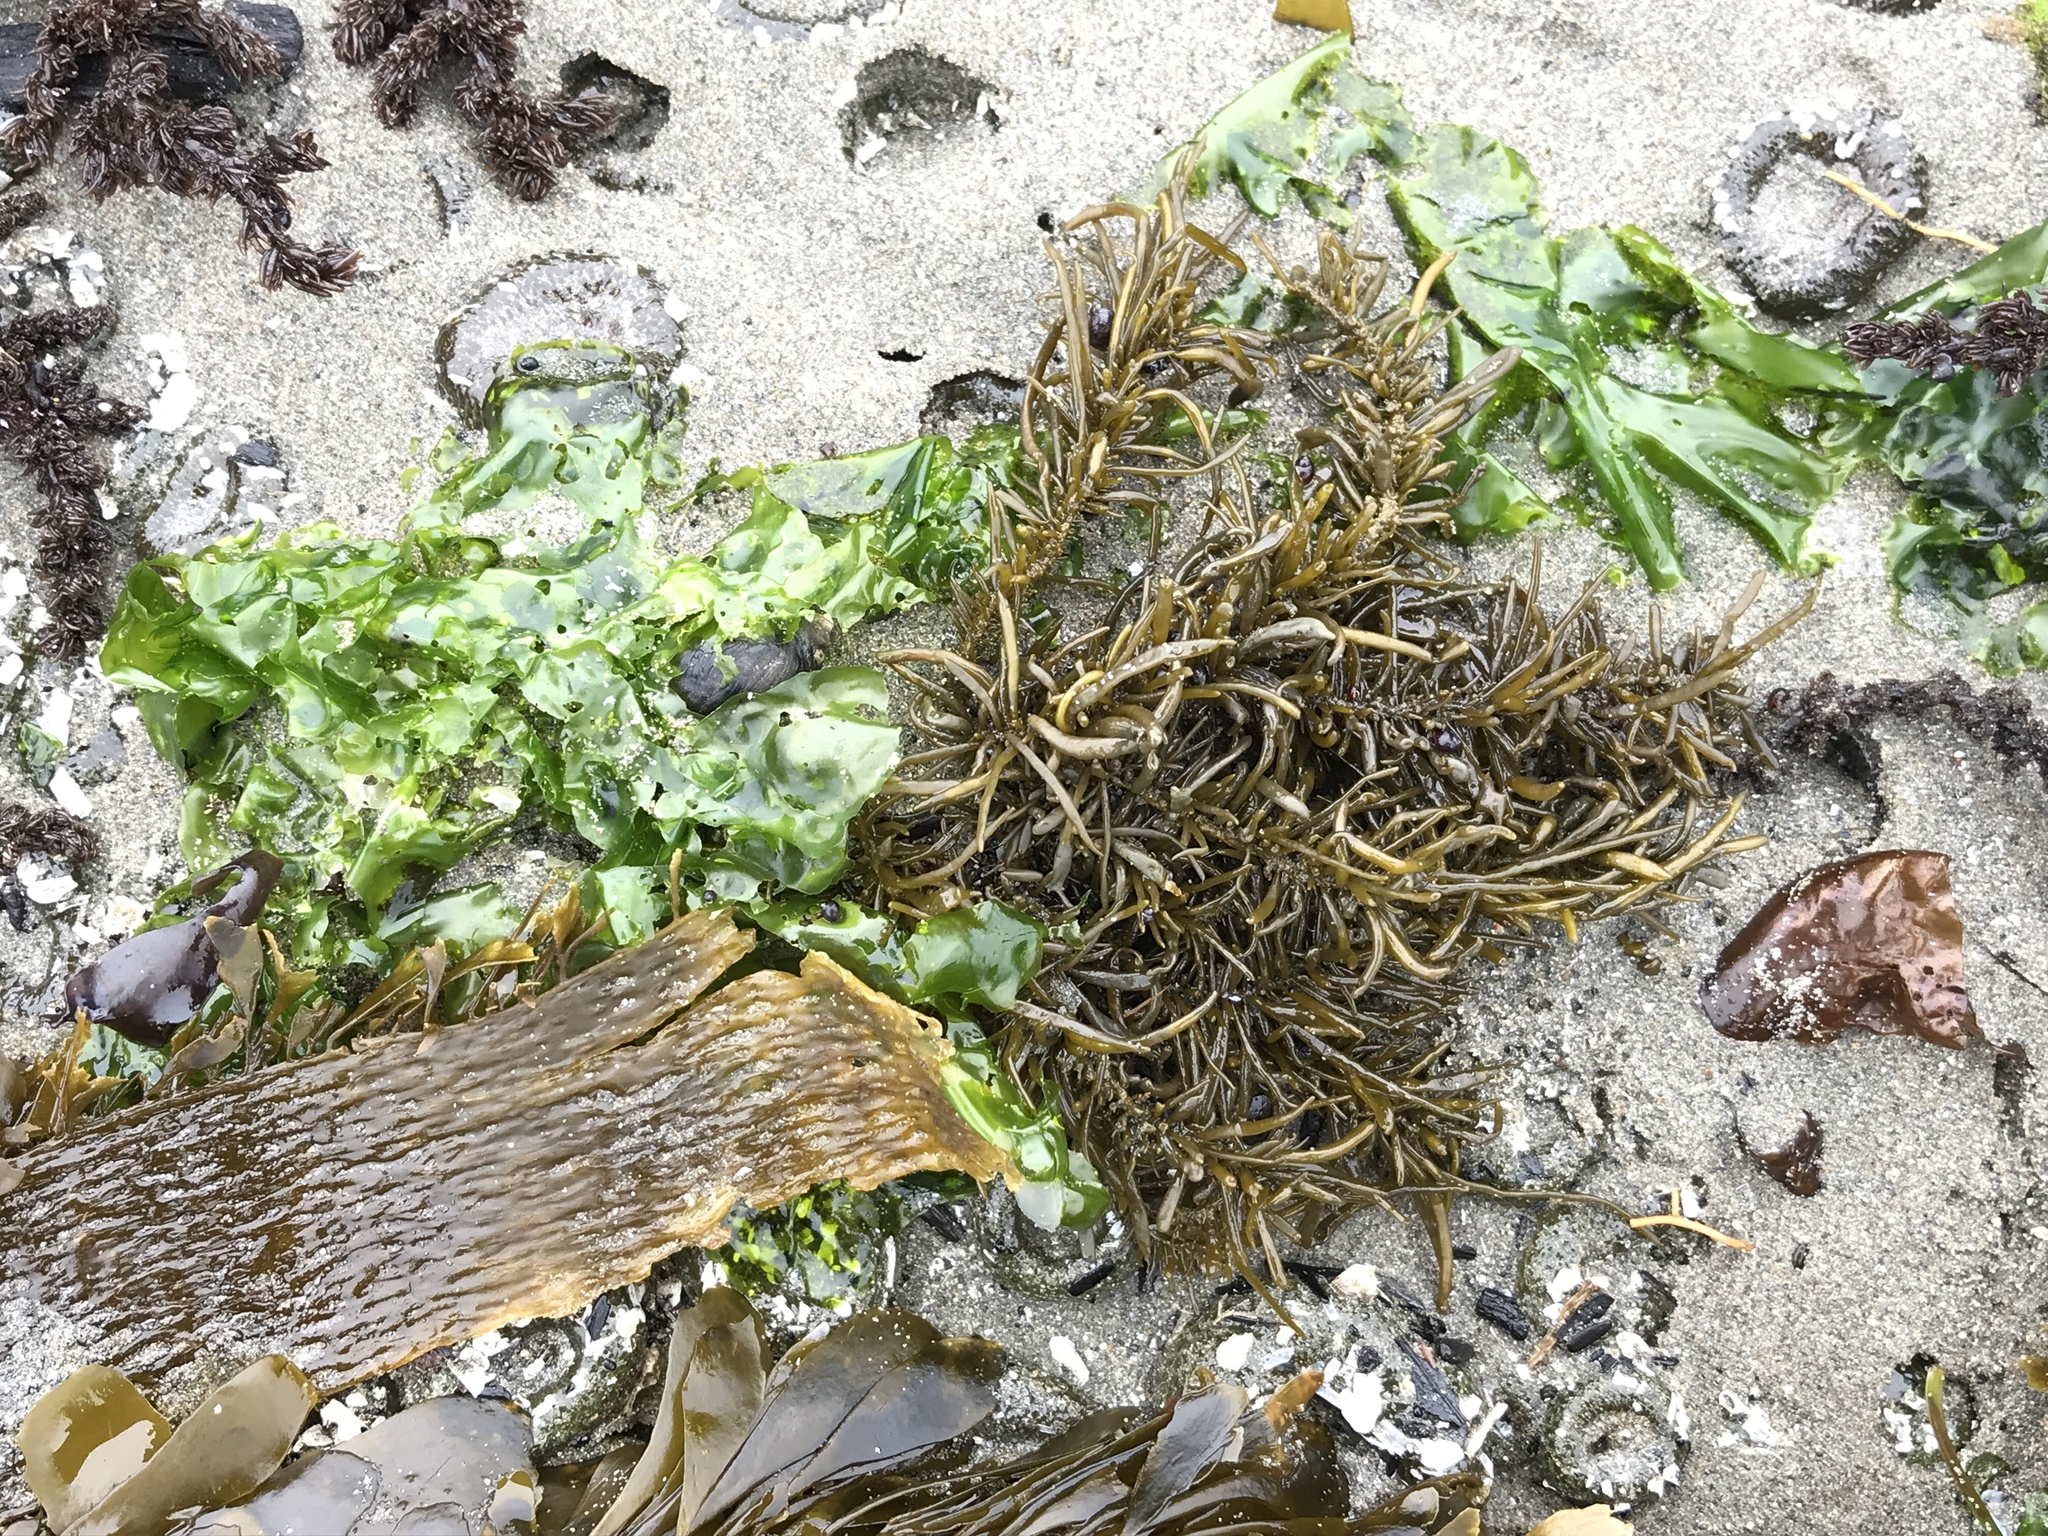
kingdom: Chromista
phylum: Ochrophyta
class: Phaeophyceae
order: Scytosiphonales
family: Scytosiphonaceae
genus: Analipus
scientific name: Analipus japonicus
